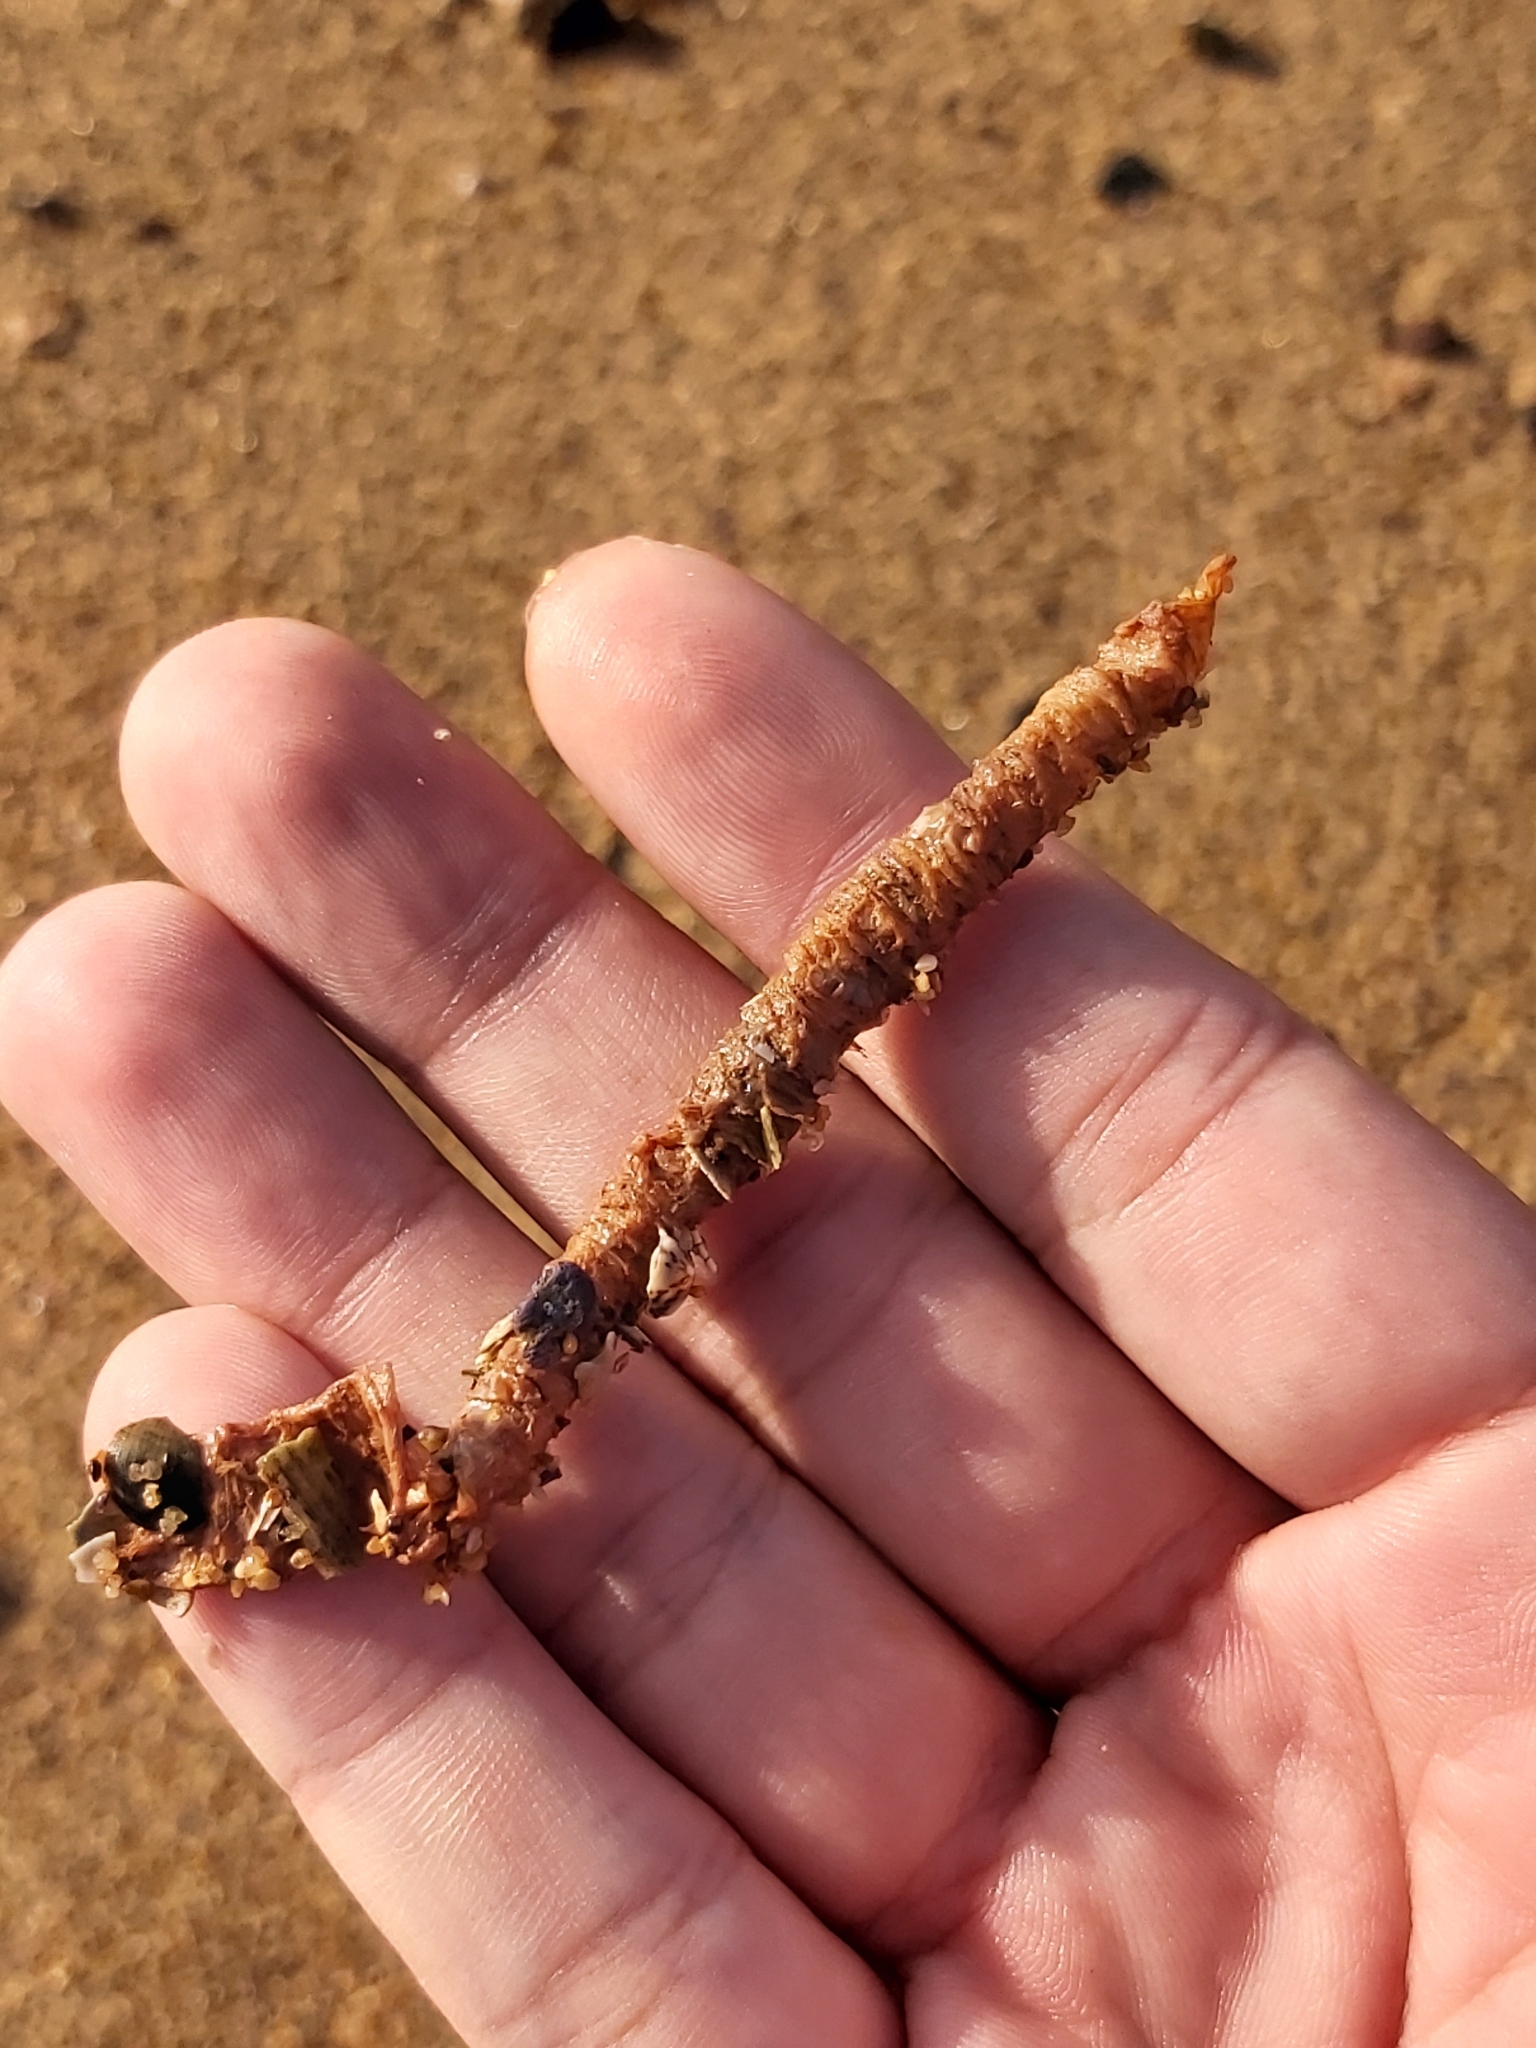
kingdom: Animalia
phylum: Annelida
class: Polychaeta
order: Eunicida
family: Onuphidae
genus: Diopatra
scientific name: Diopatra dentata
